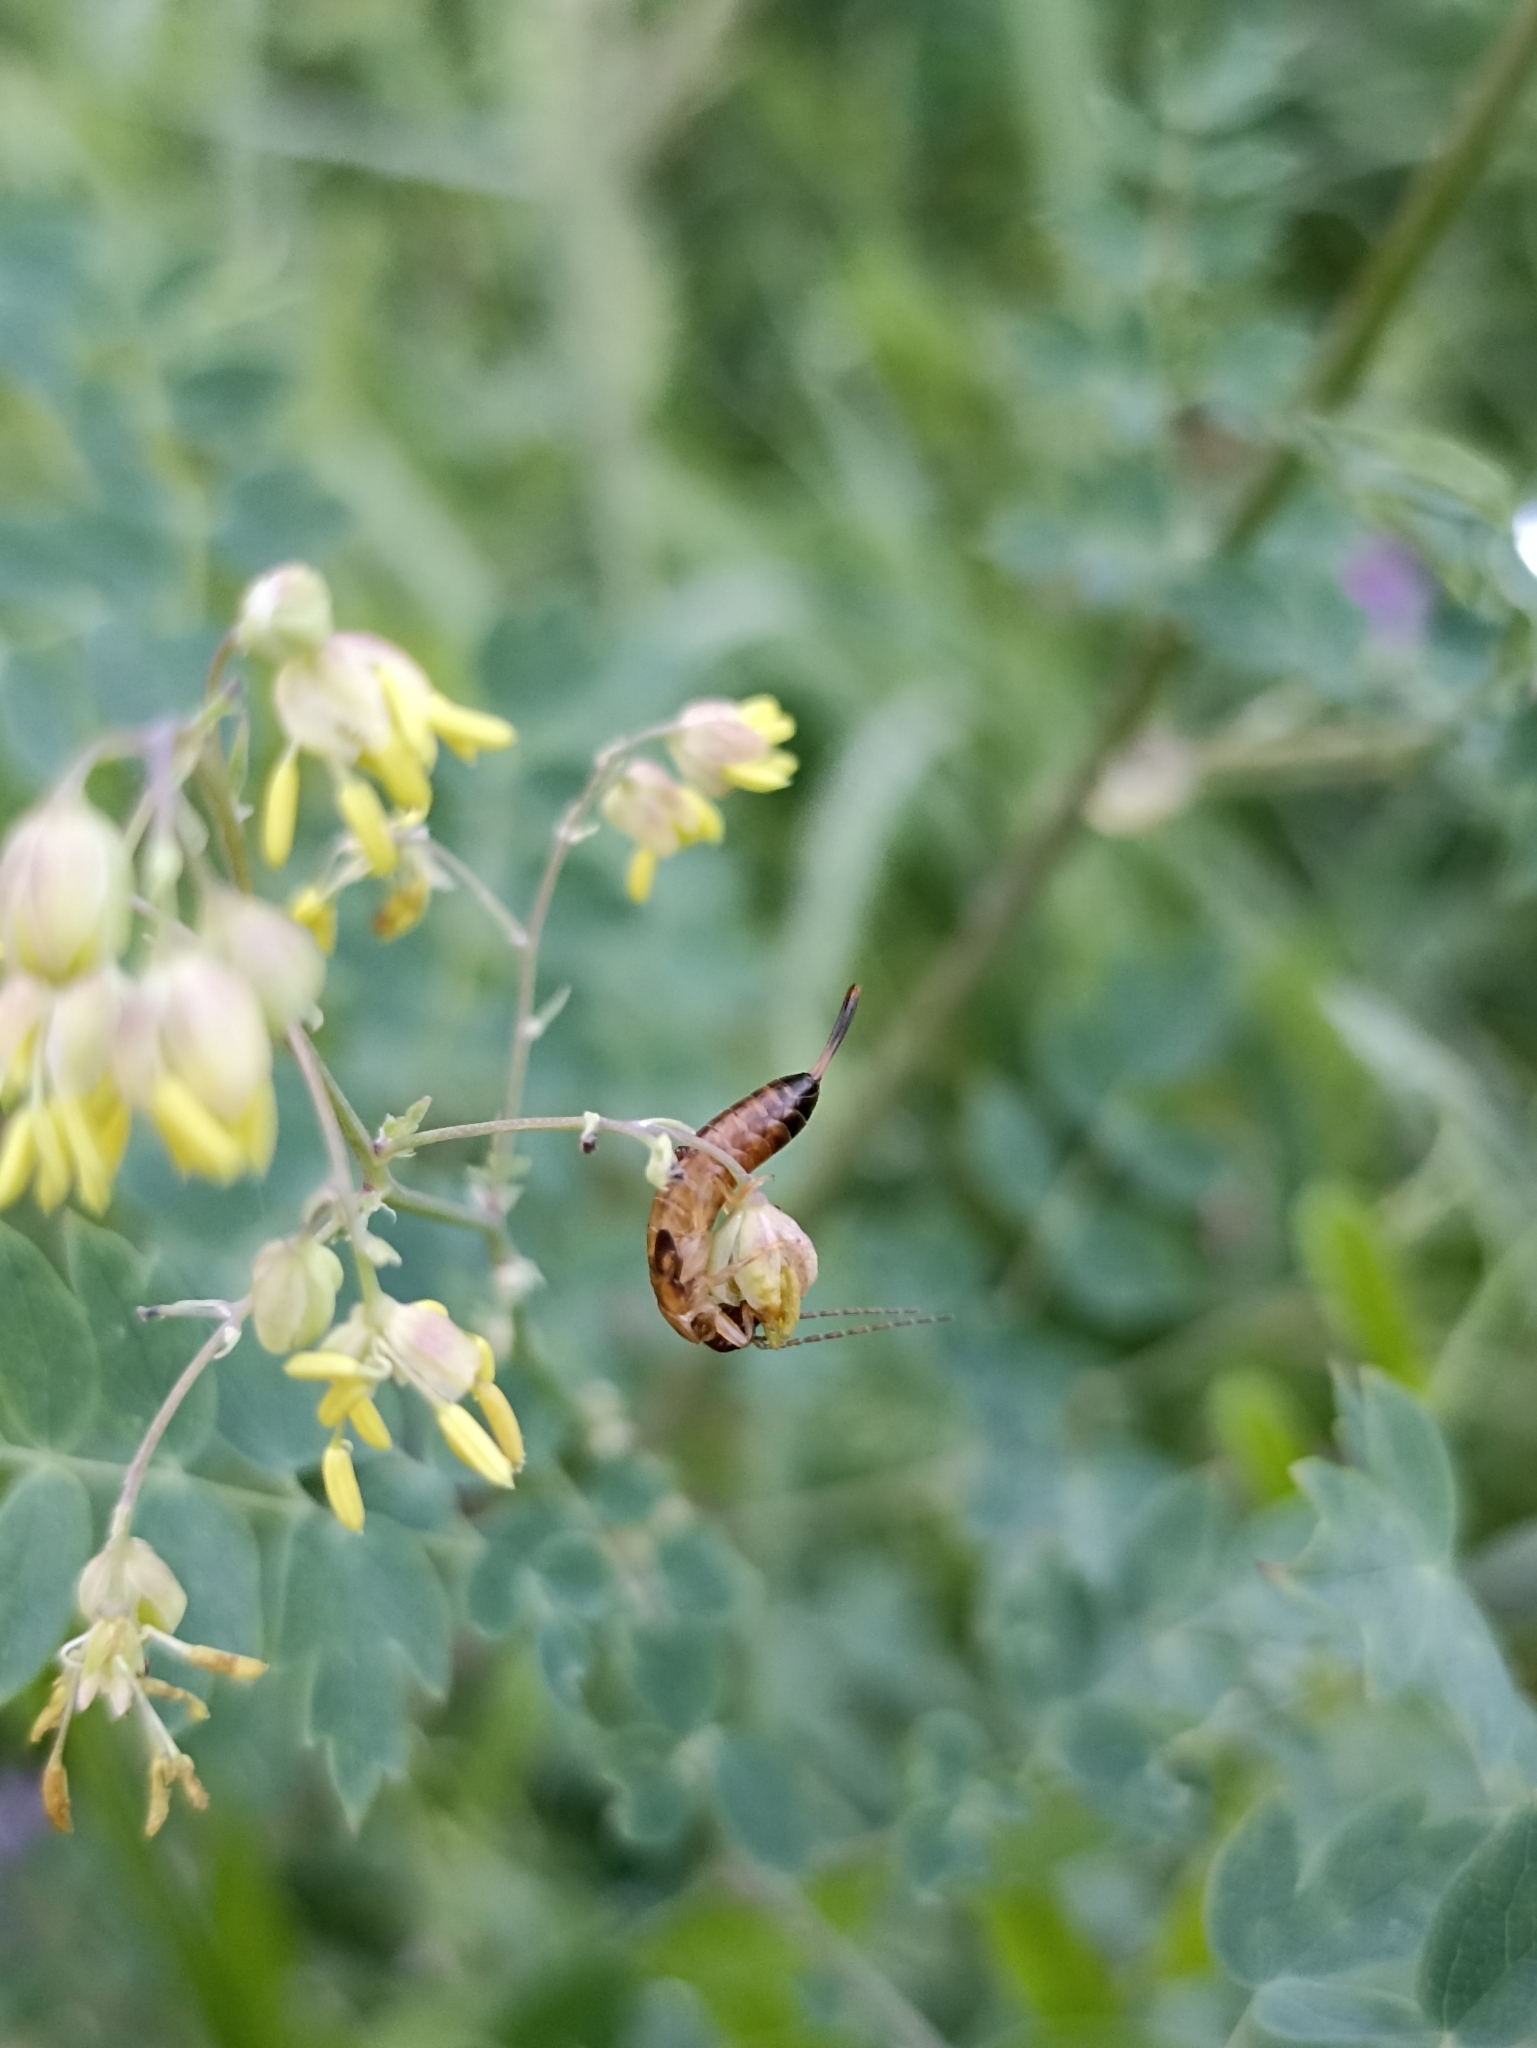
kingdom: Animalia
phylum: Arthropoda
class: Insecta
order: Dermaptera
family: Forficulidae
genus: Forficula
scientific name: Forficula auricularia
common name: European earwig
